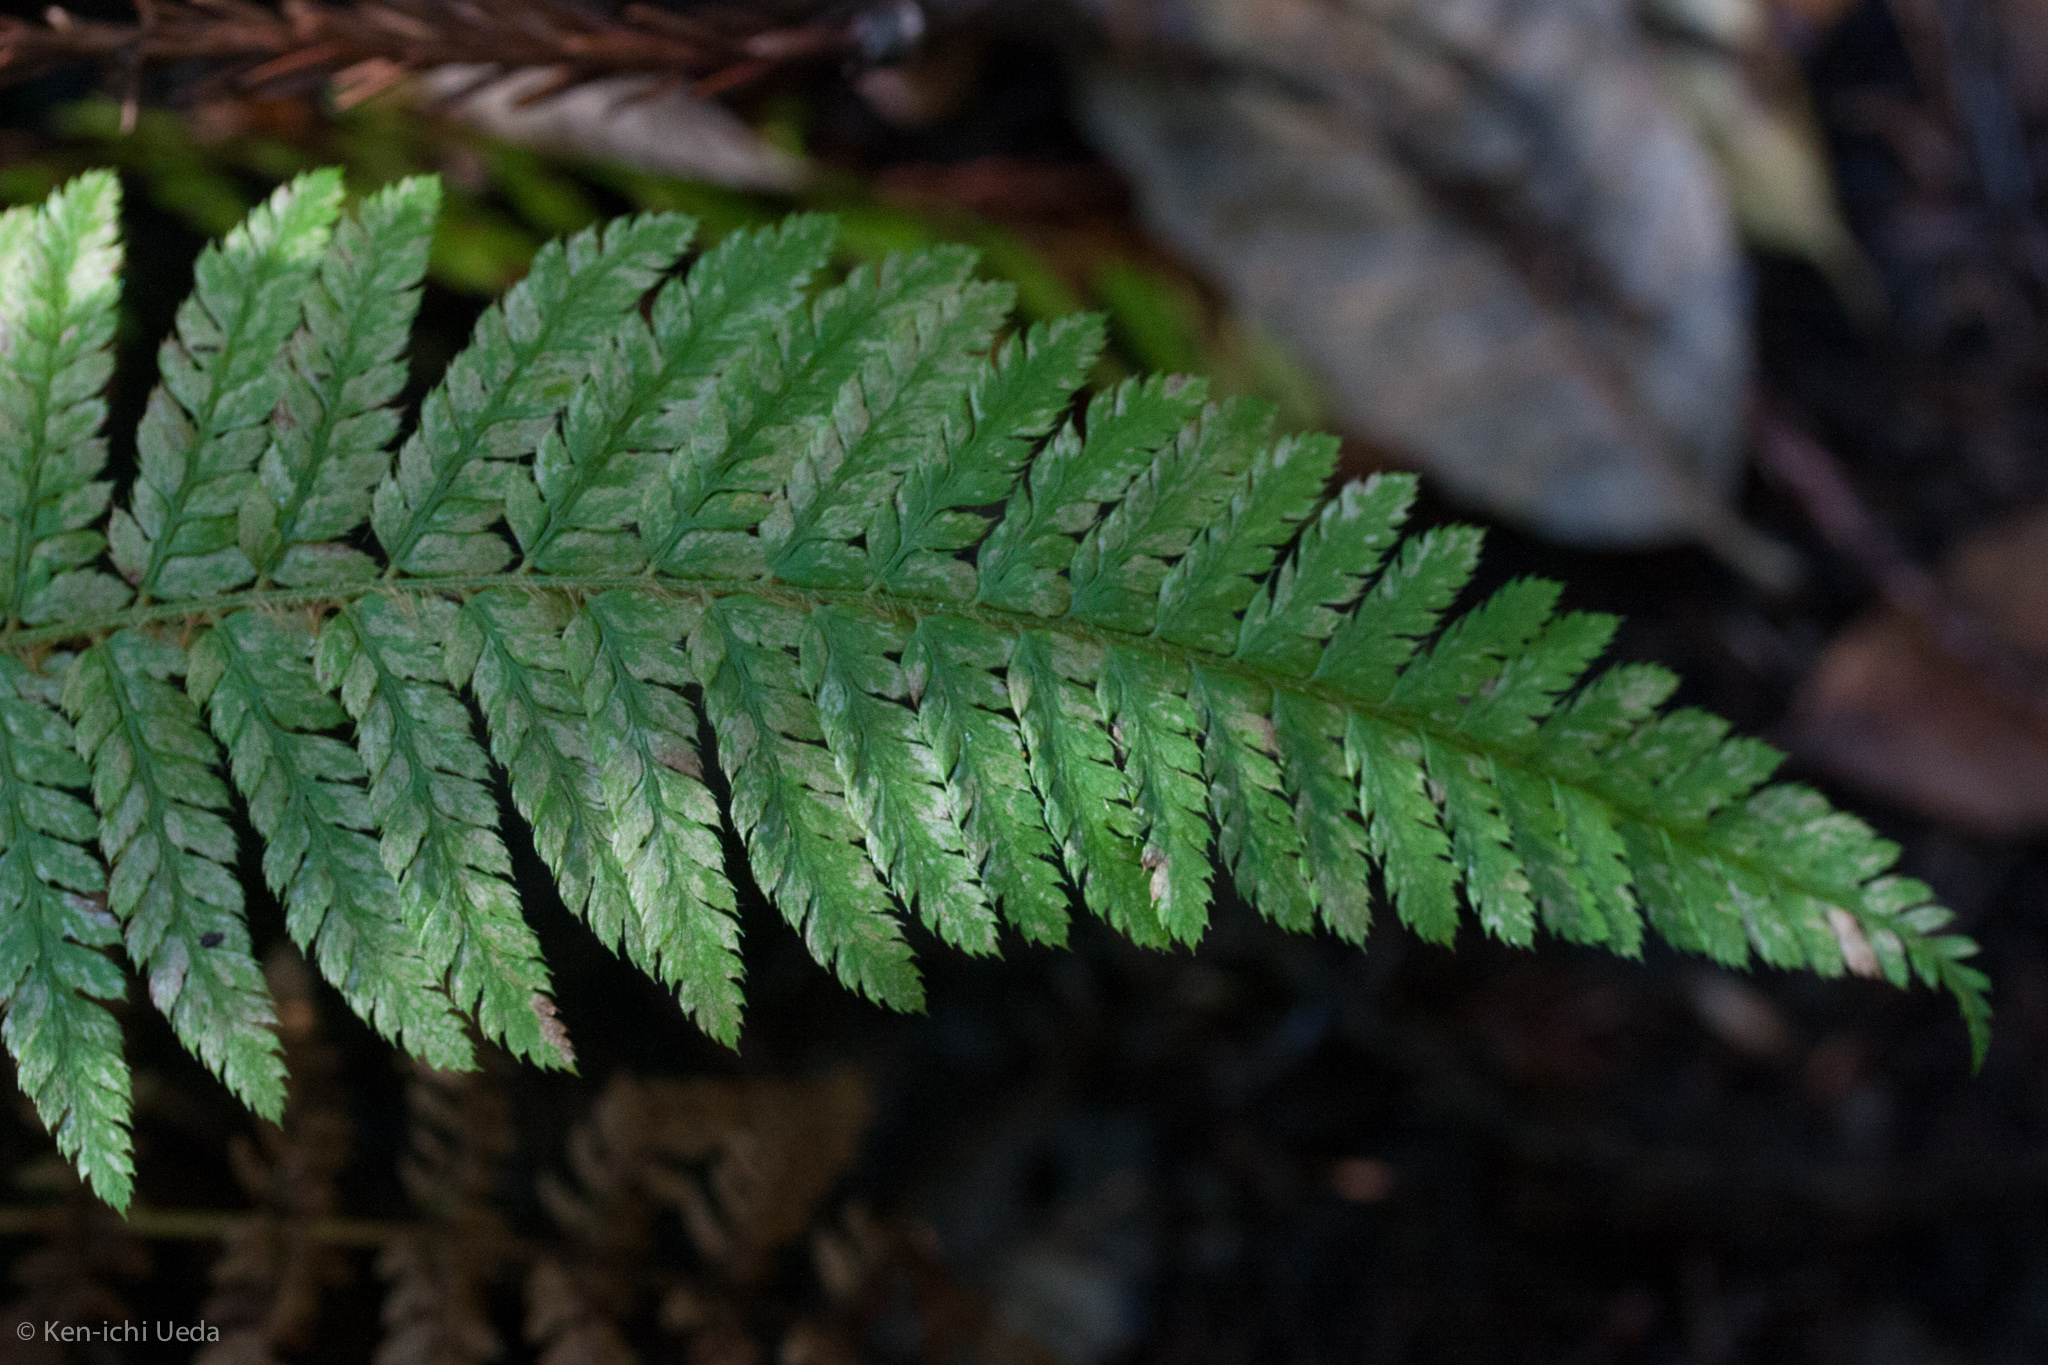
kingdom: Plantae
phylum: Tracheophyta
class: Polypodiopsida
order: Polypodiales
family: Dryopteridaceae
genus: Polystichum
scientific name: Polystichum dudleyi
